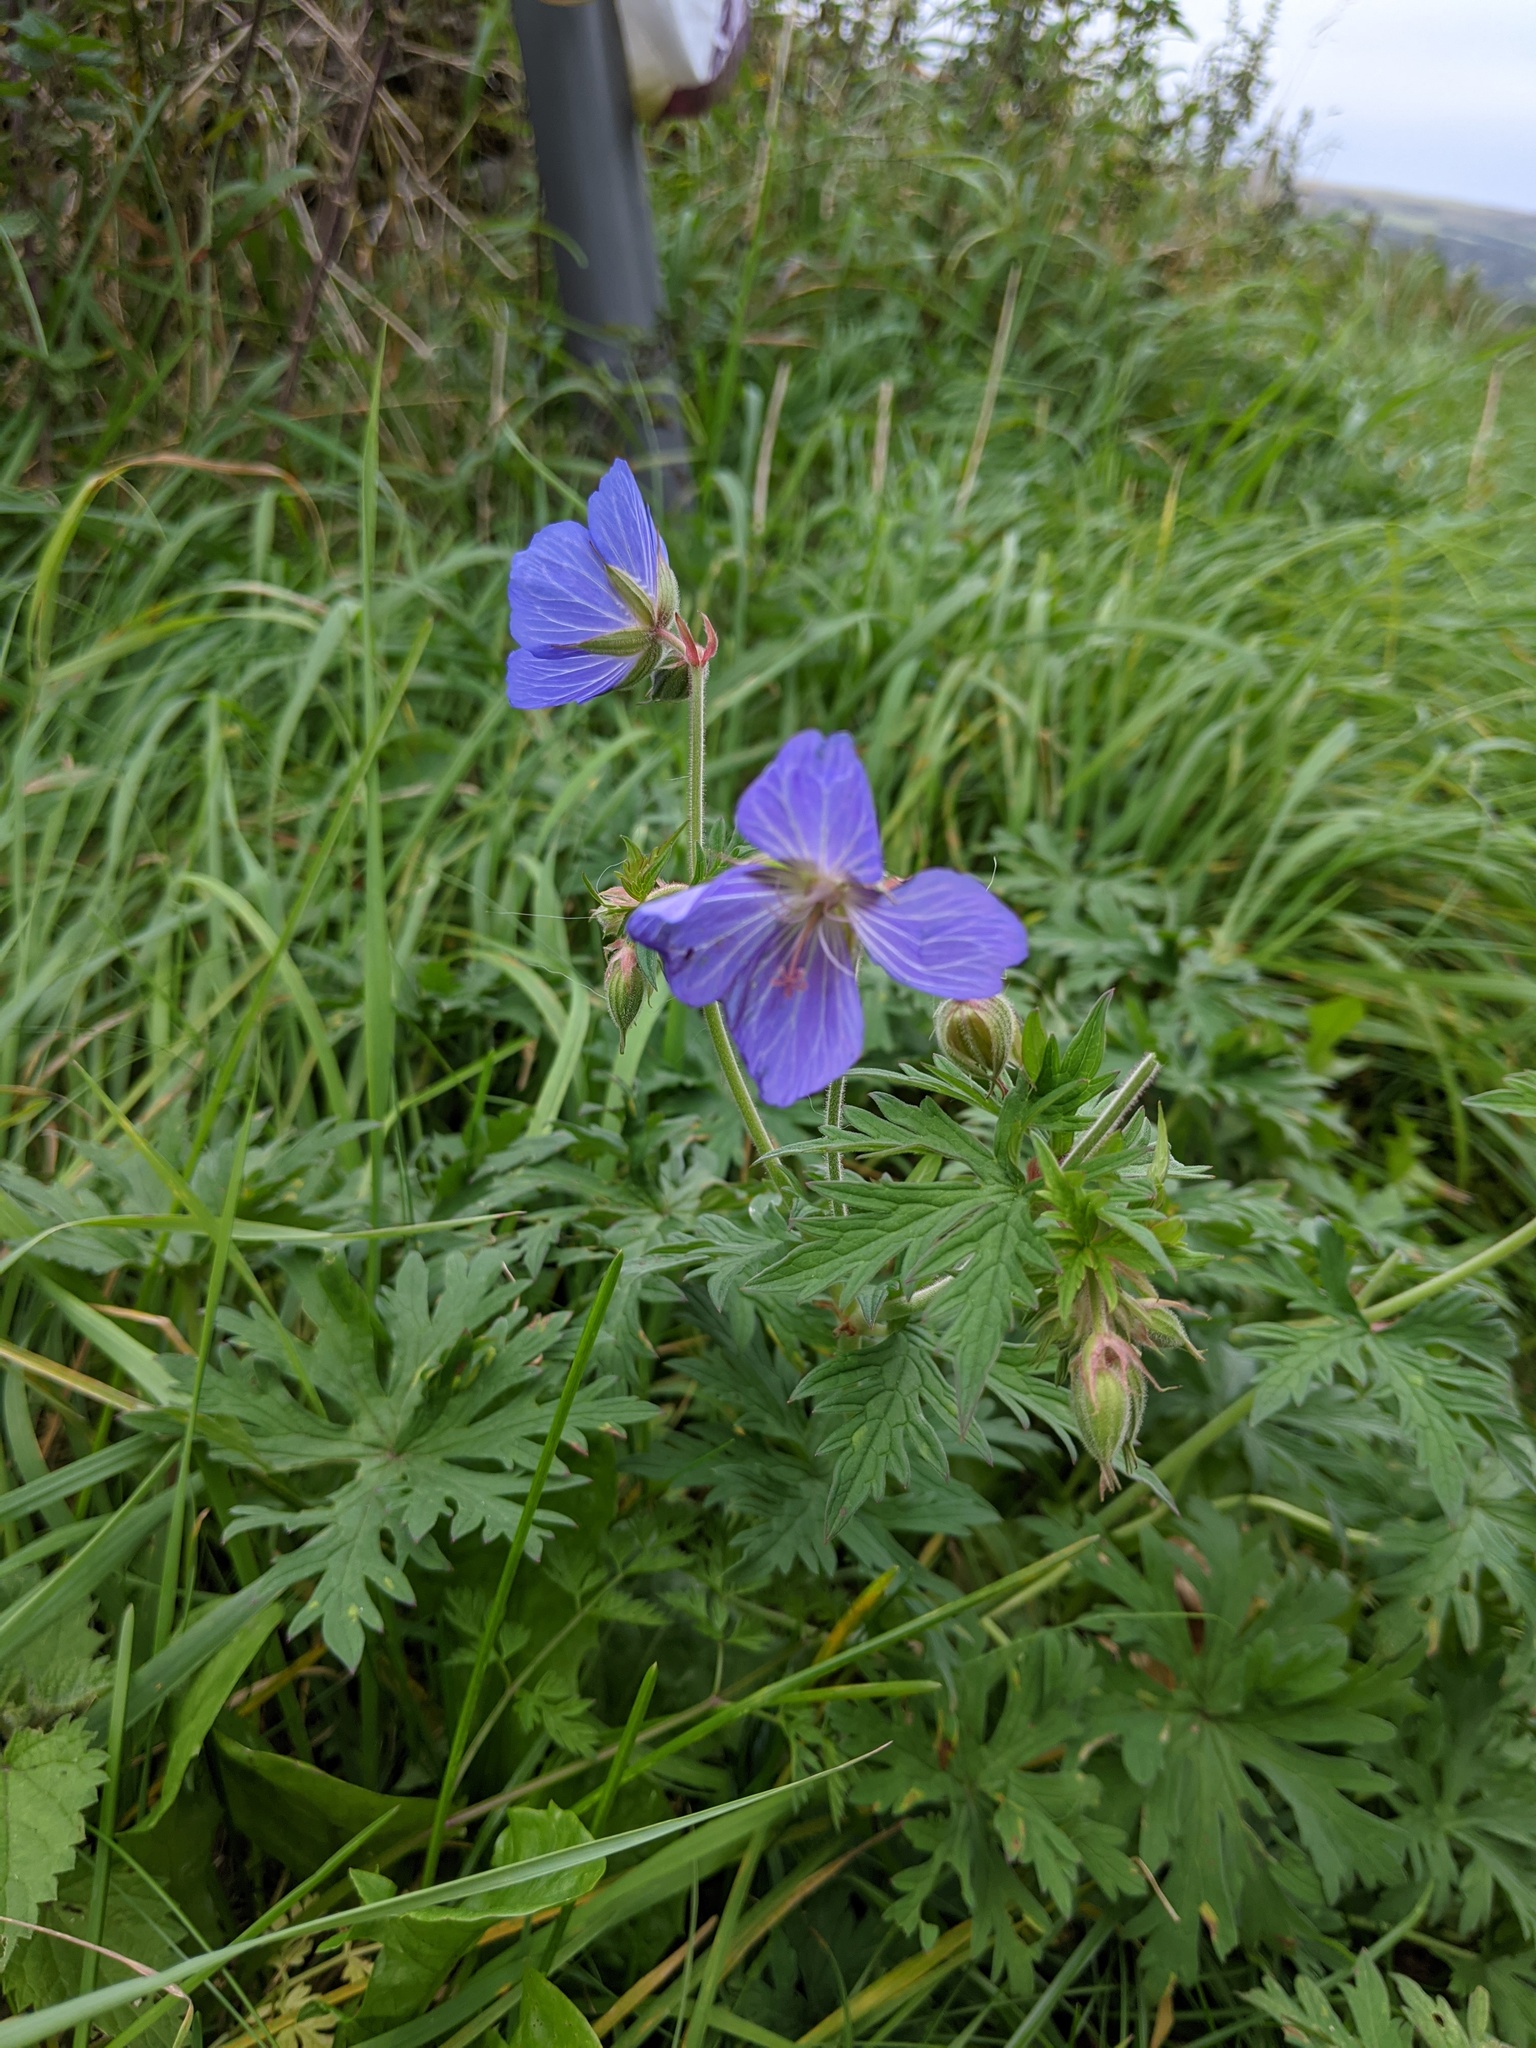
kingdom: Plantae
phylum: Tracheophyta
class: Magnoliopsida
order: Geraniales
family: Geraniaceae
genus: Geranium
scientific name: Geranium pratense
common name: Meadow crane's-bill
